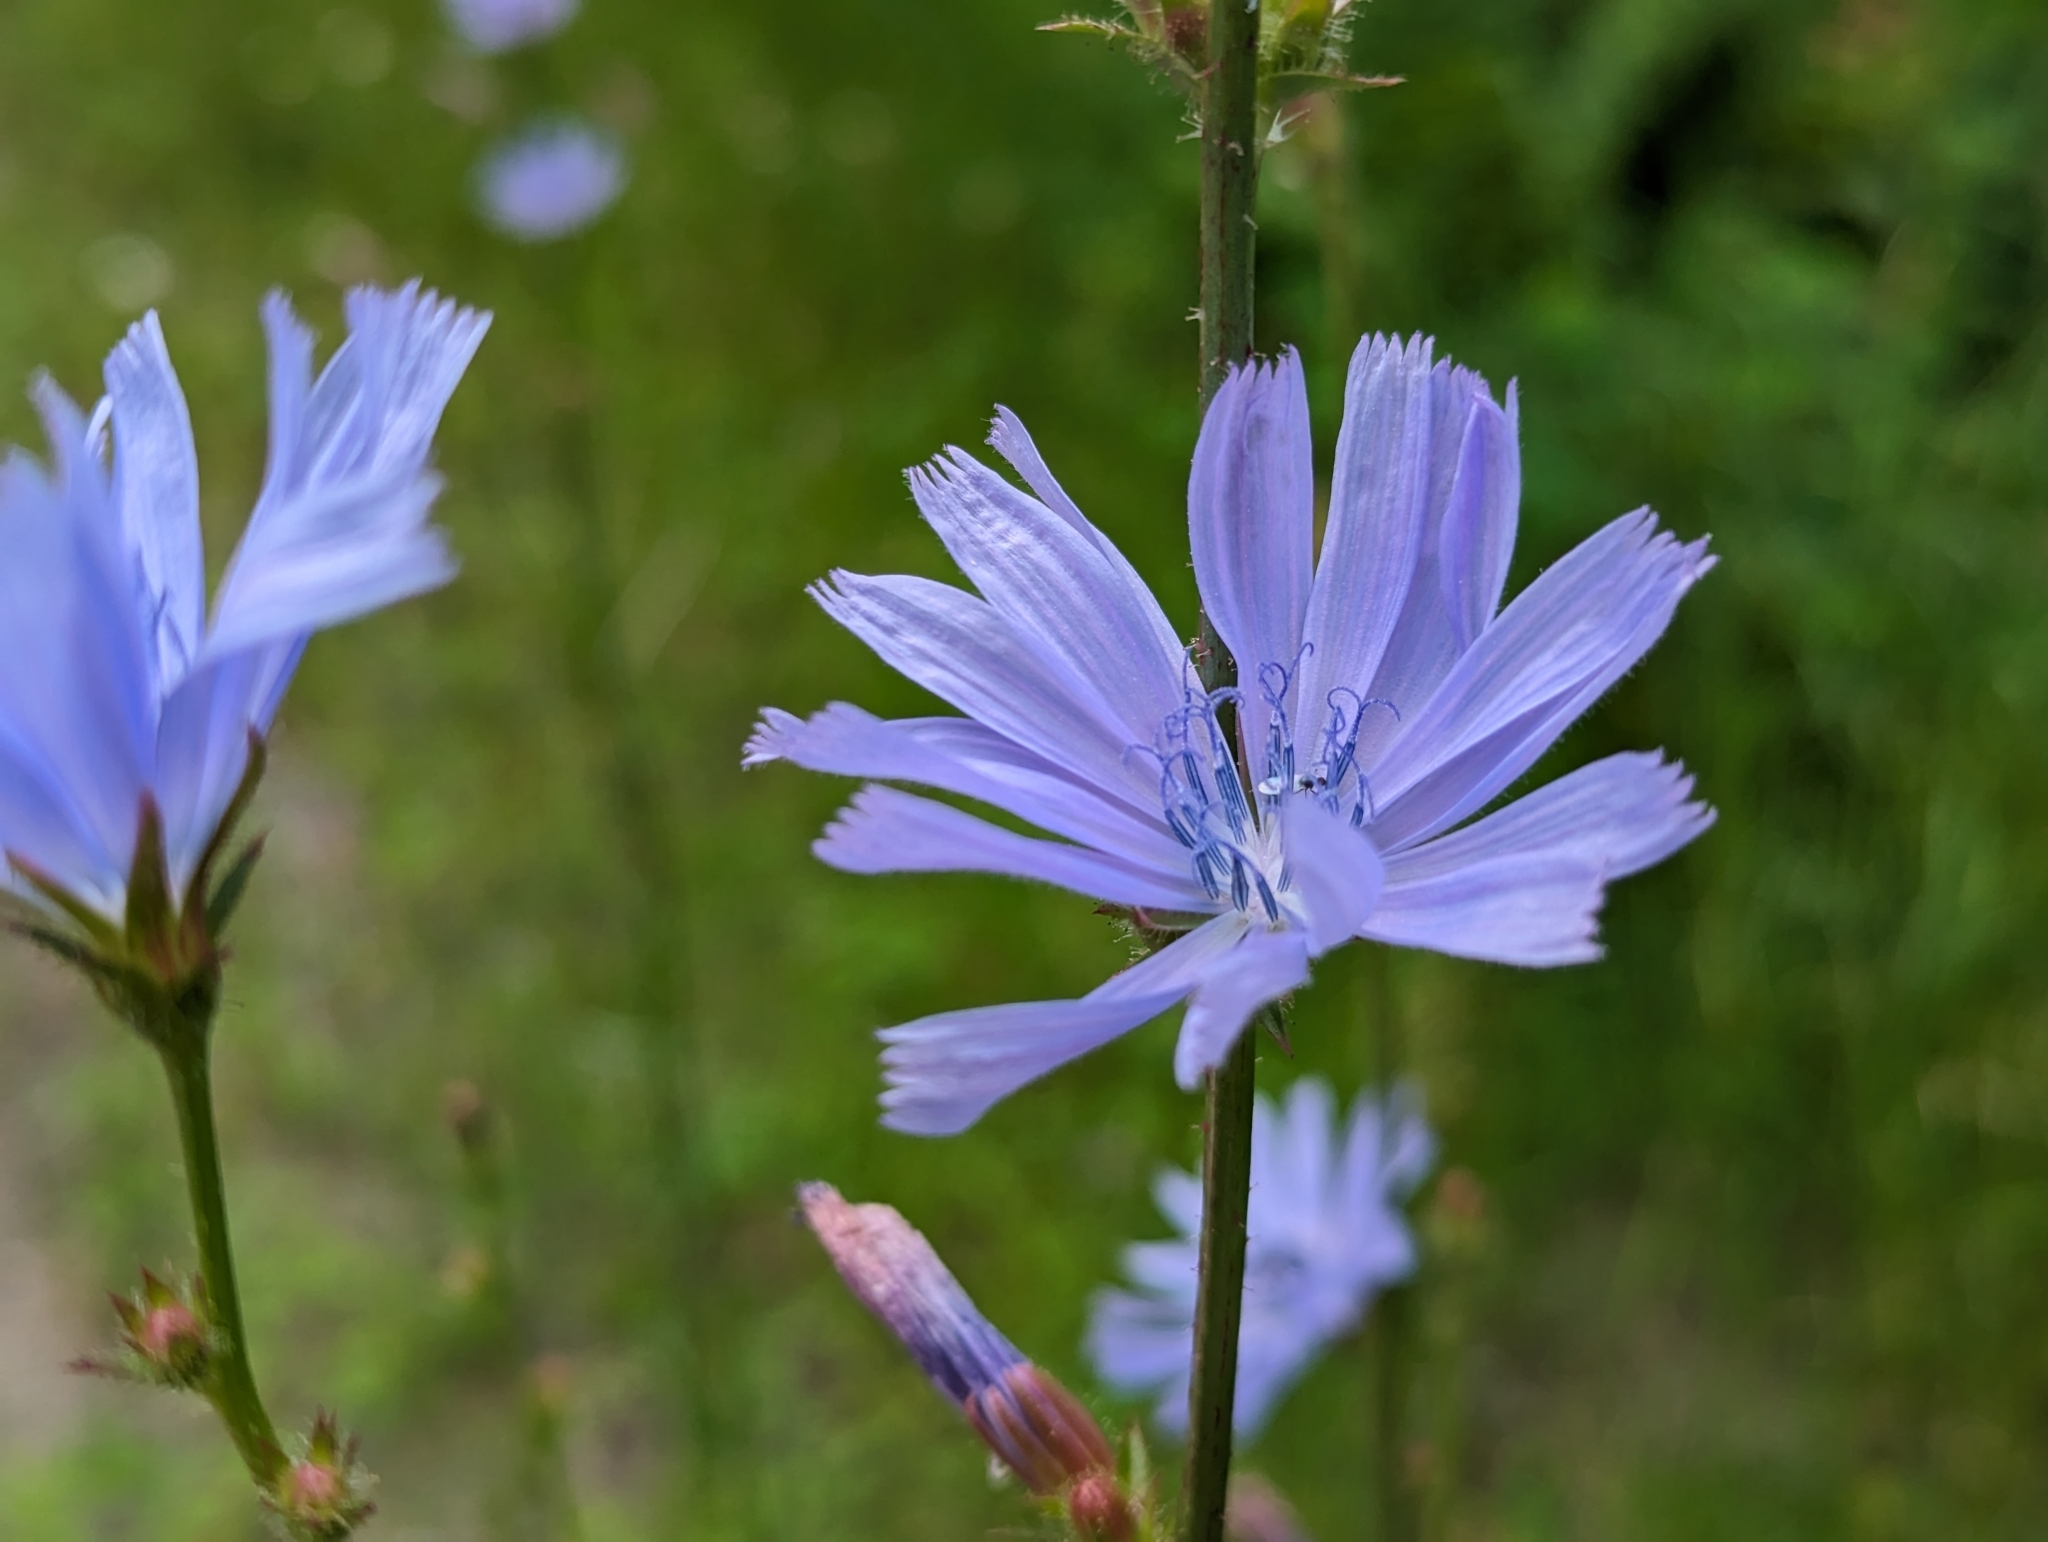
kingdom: Plantae
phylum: Tracheophyta
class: Magnoliopsida
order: Asterales
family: Asteraceae
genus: Cichorium
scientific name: Cichorium intybus
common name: Chicory
